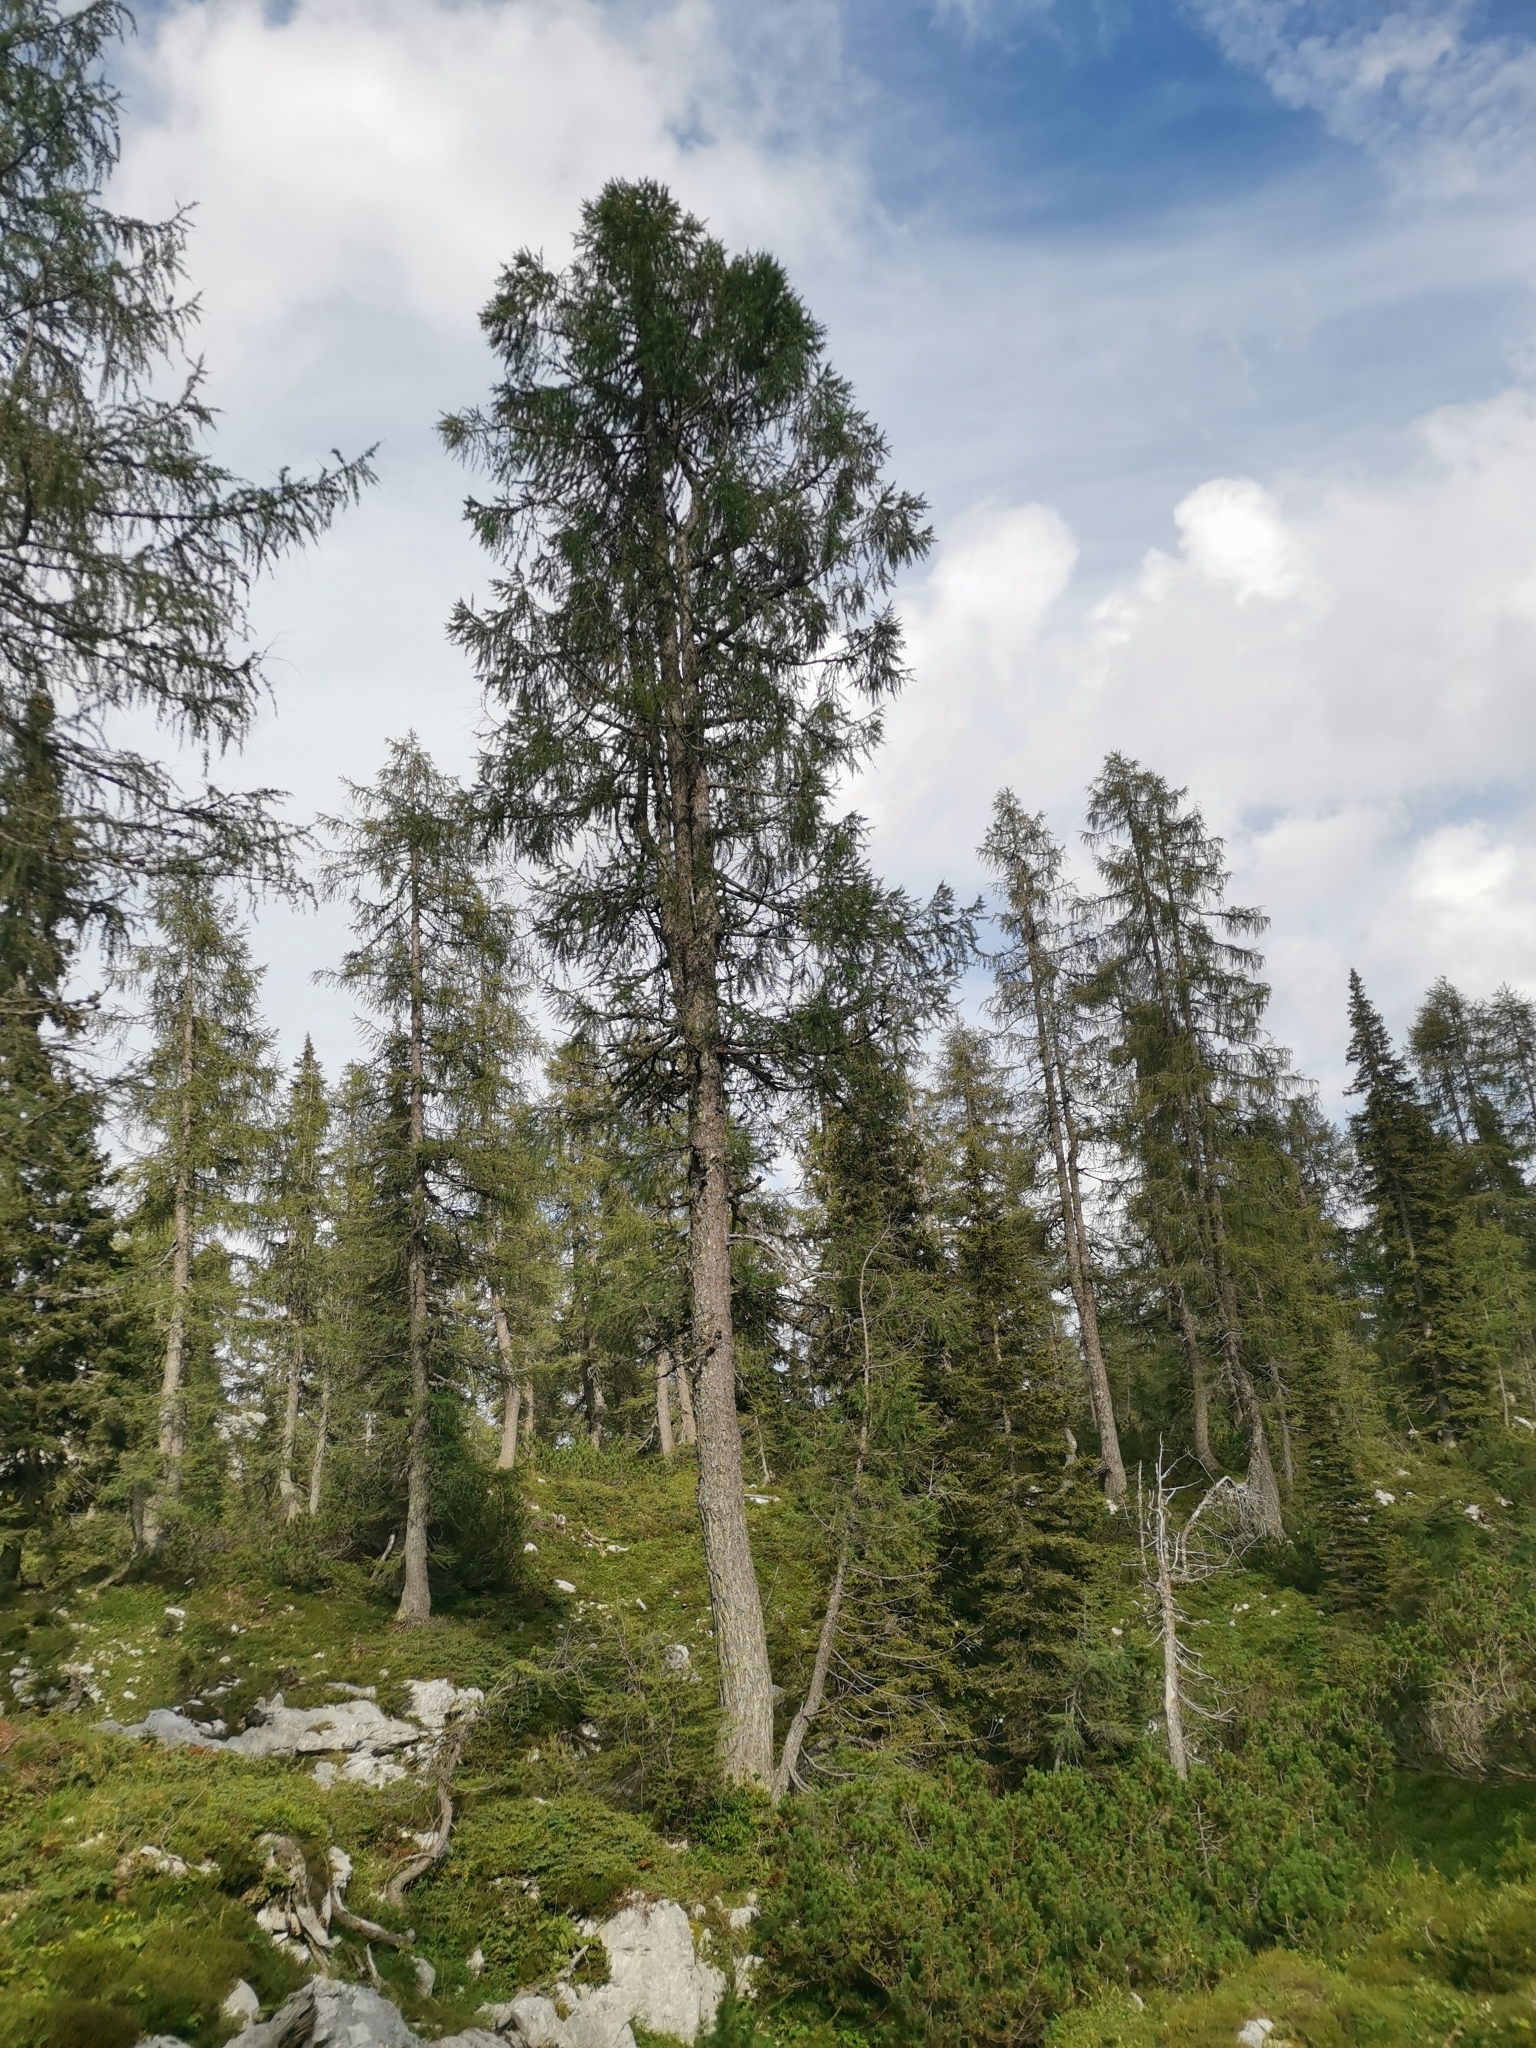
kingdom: Plantae
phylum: Tracheophyta
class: Pinopsida
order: Pinales
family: Pinaceae
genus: Larix
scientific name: Larix decidua
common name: European larch
